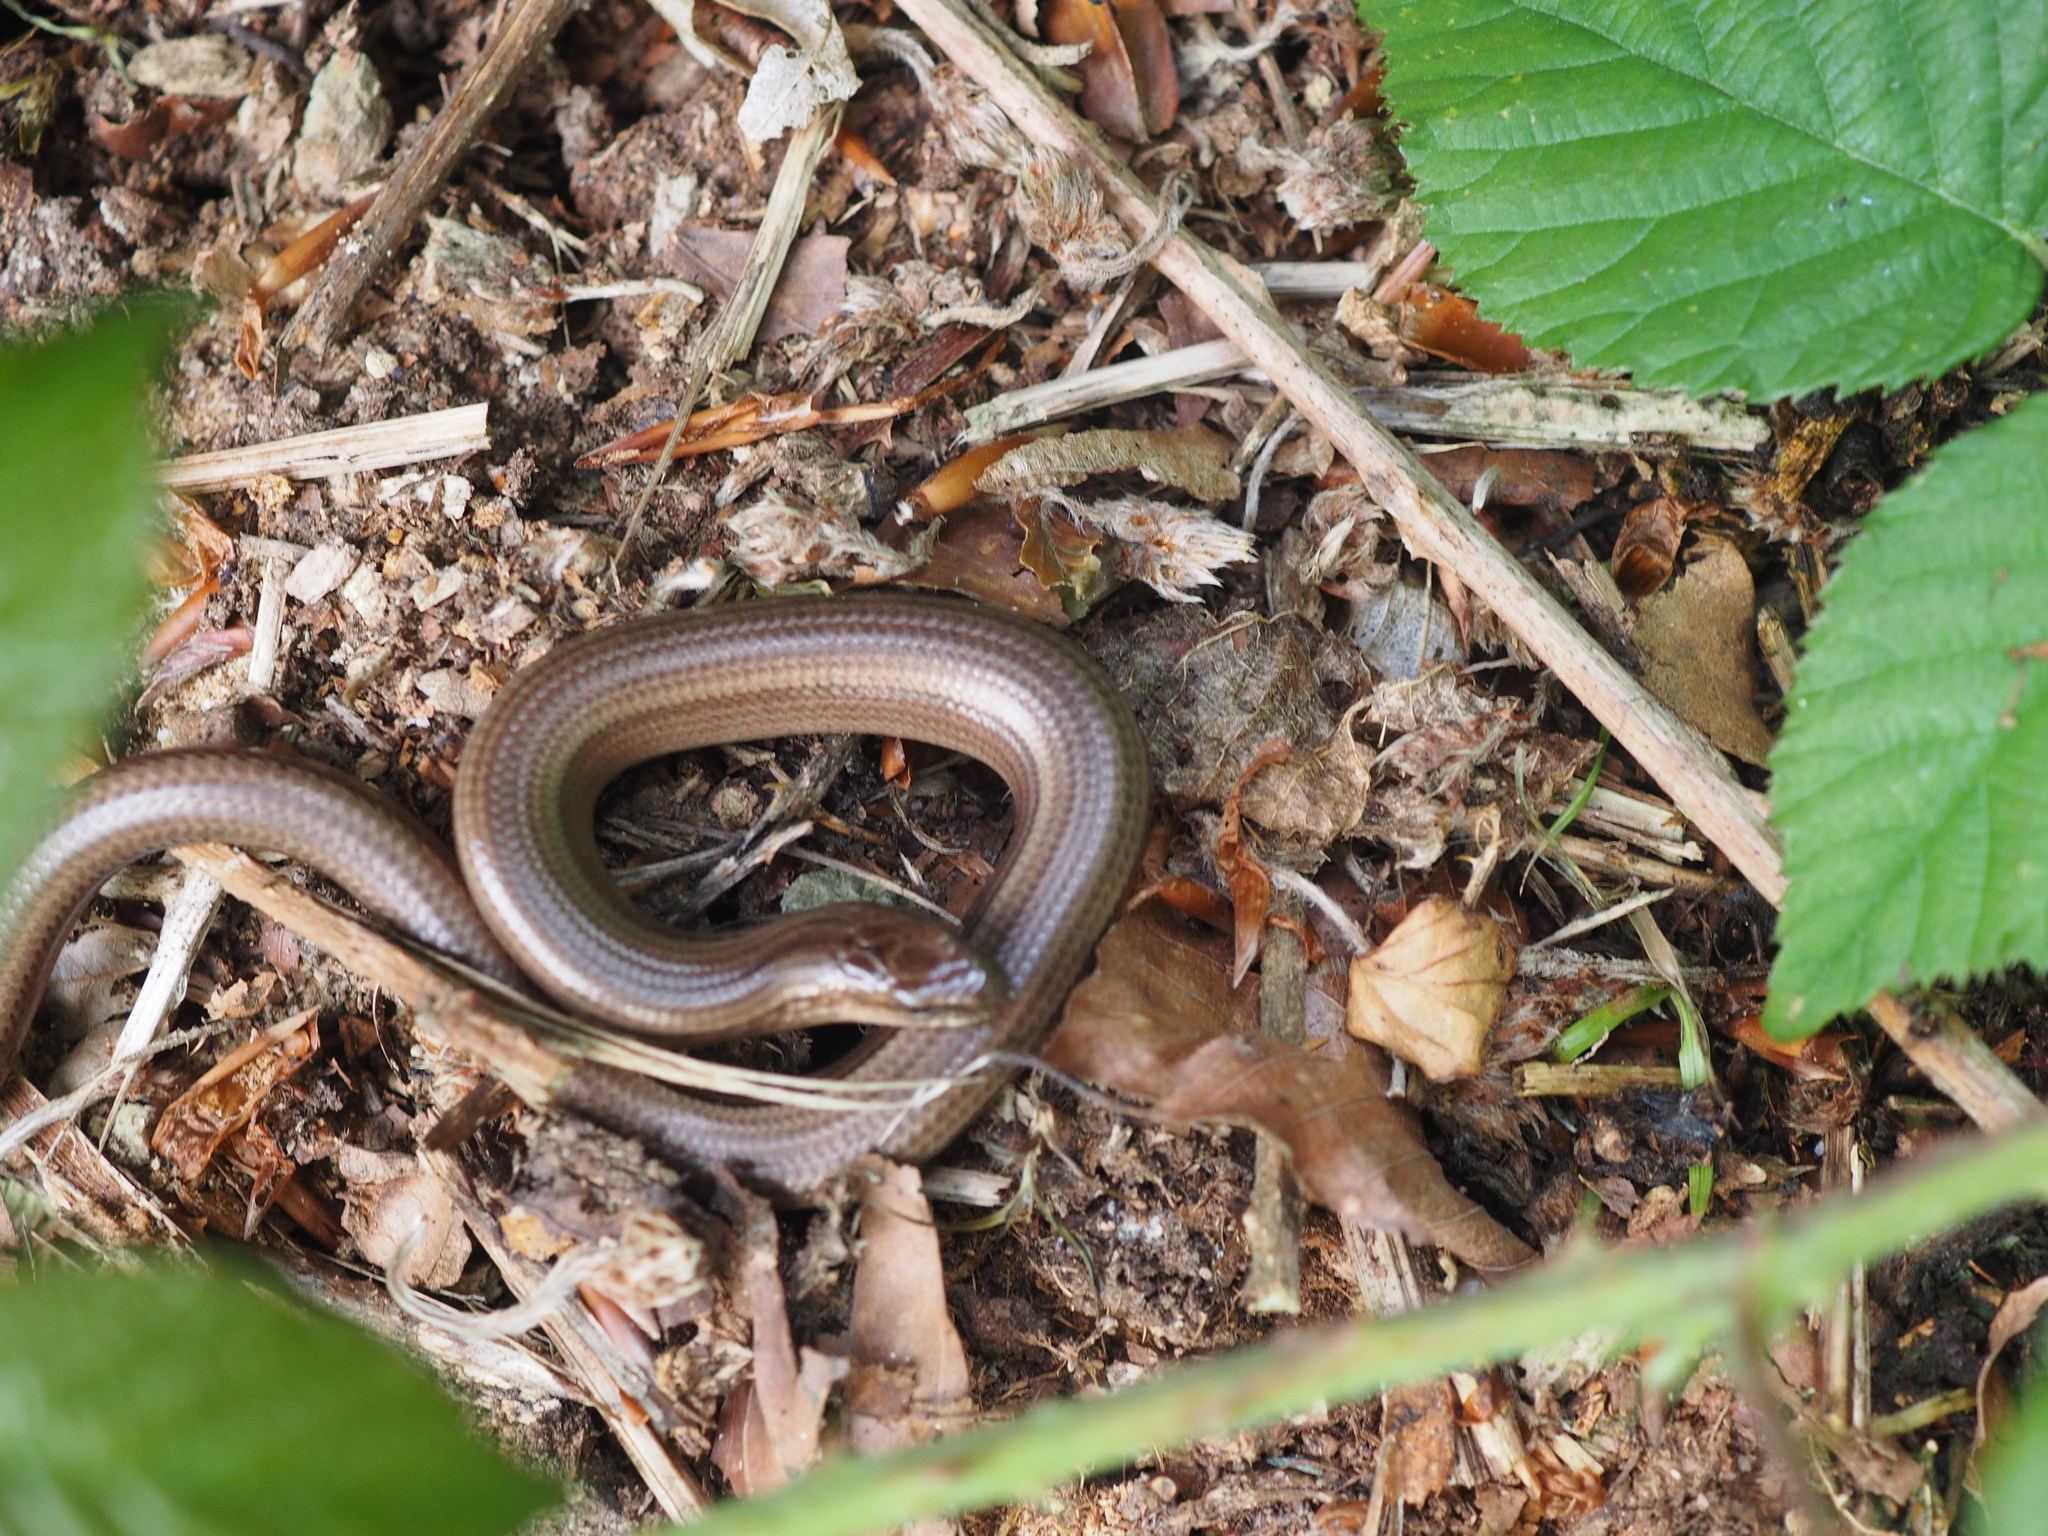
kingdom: Animalia
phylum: Chordata
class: Squamata
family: Anguidae
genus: Anguis
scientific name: Anguis fragilis
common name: Slow worm
